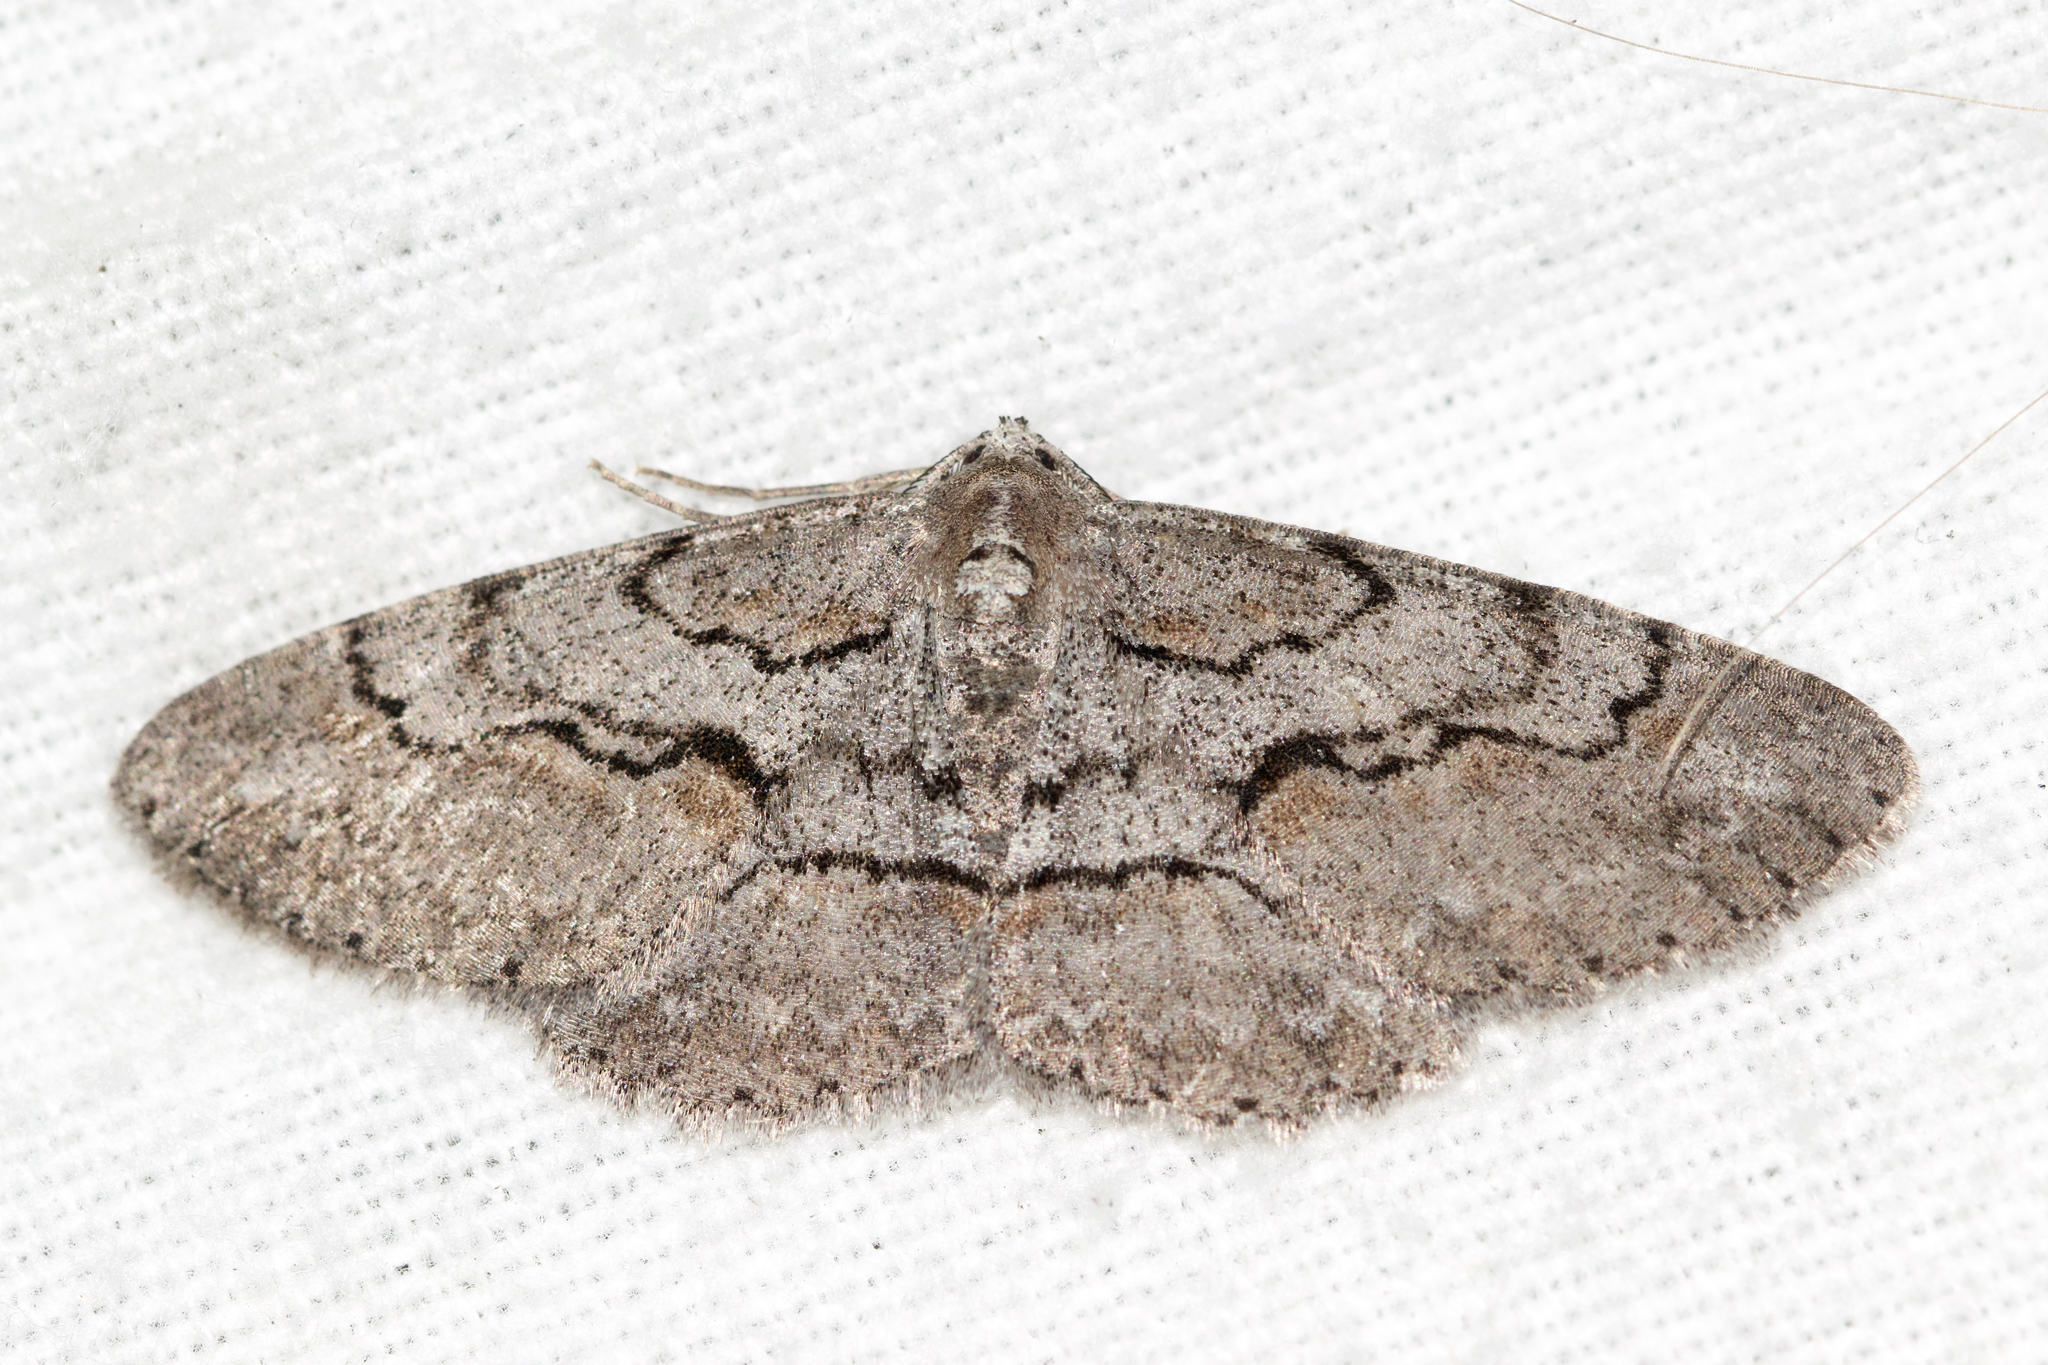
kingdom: Animalia
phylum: Arthropoda
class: Insecta
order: Lepidoptera
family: Geometridae
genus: Iridopsis
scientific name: Iridopsis vellivolata
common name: Large purplish gray
